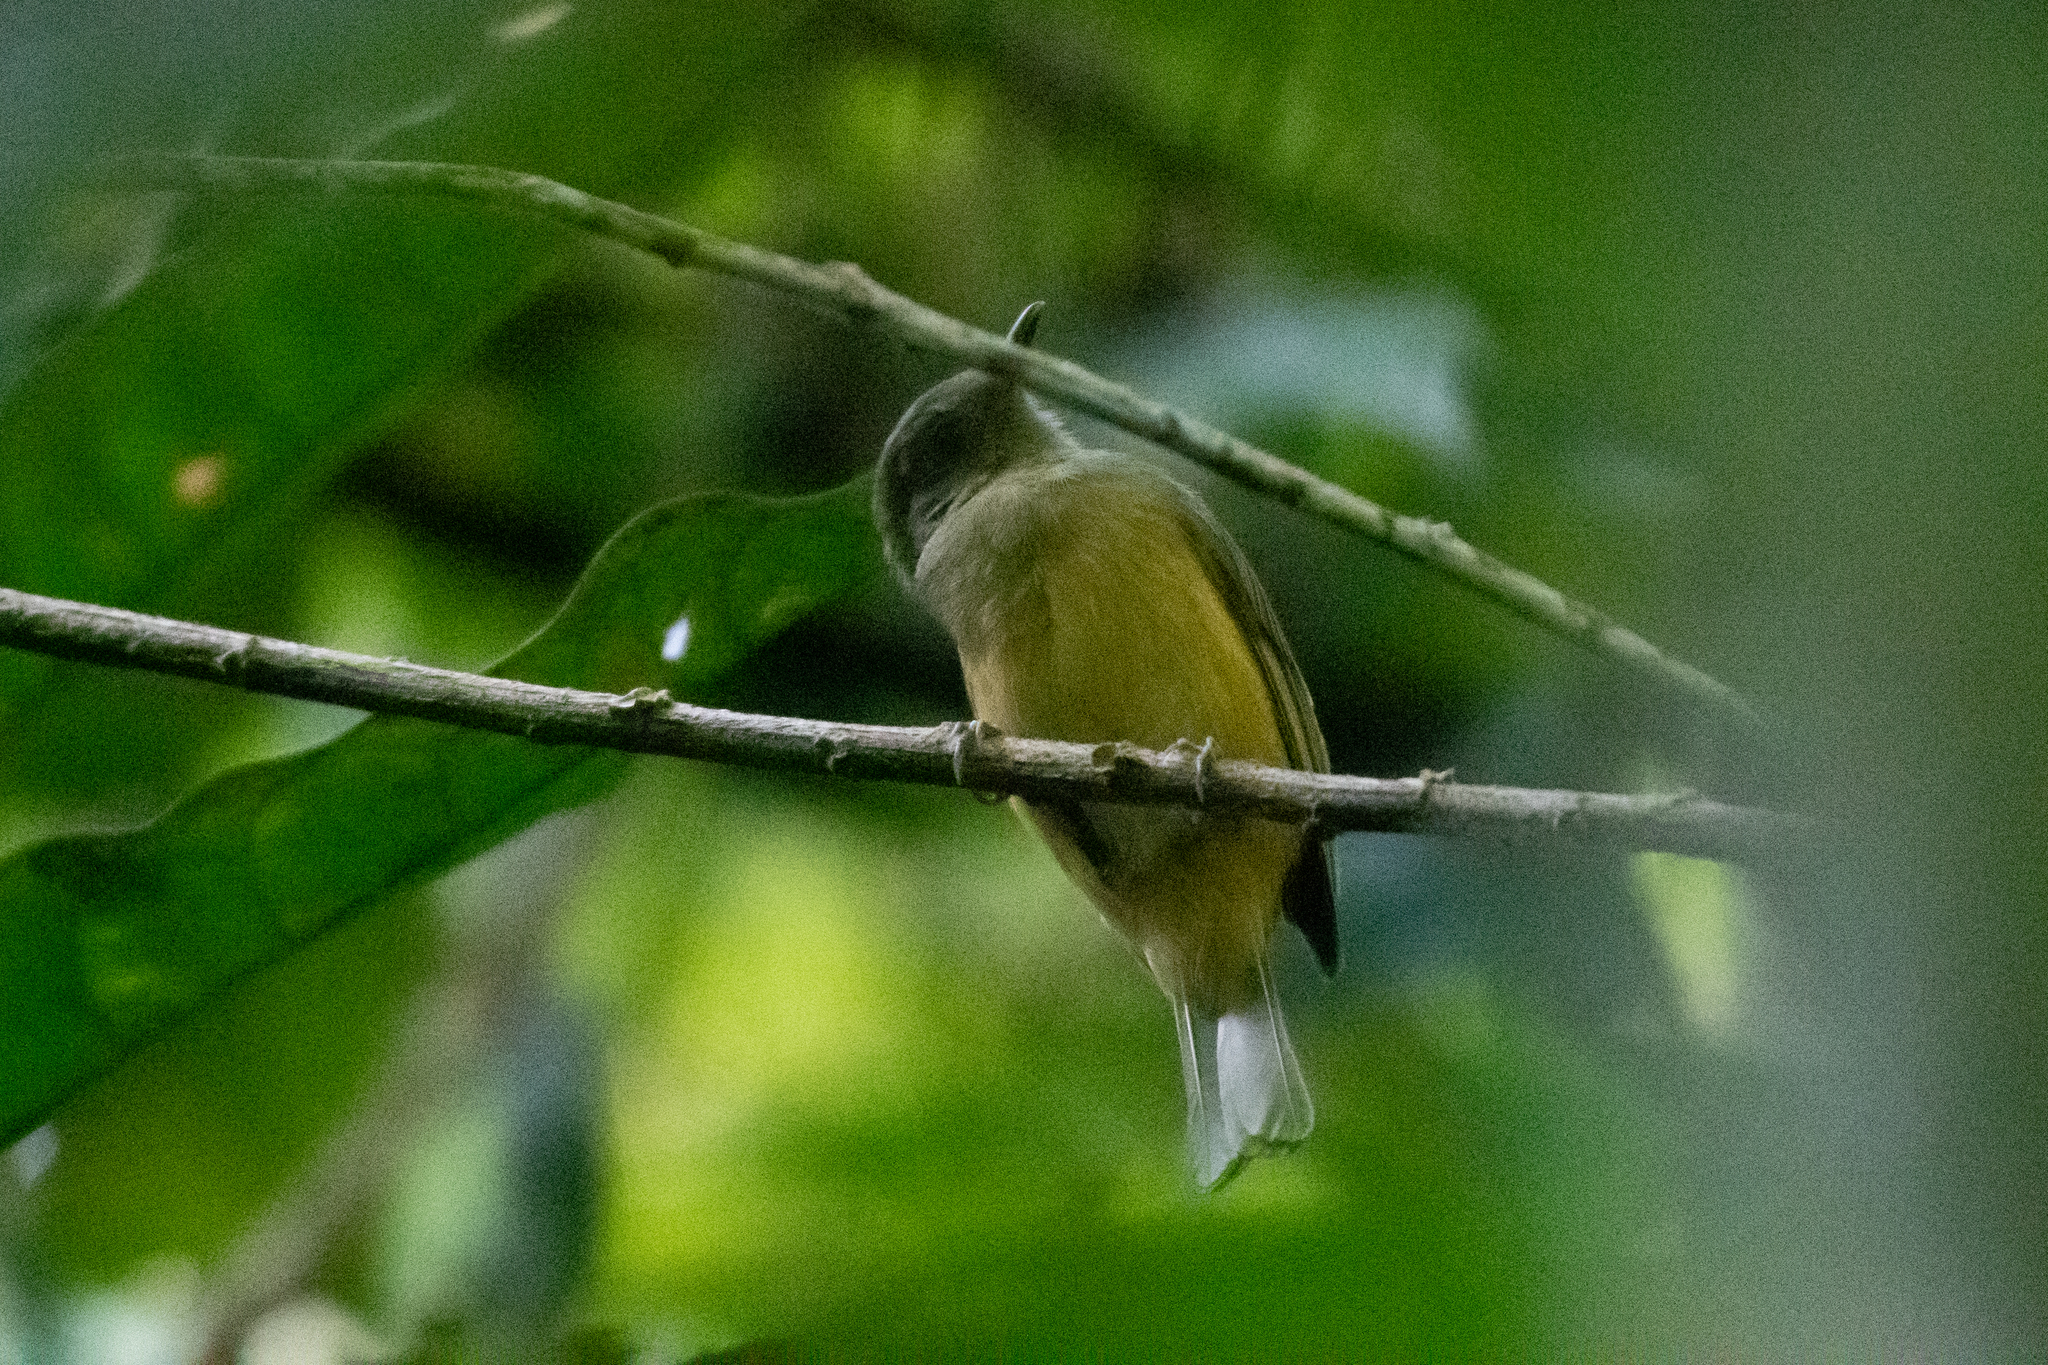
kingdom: Animalia
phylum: Chordata
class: Aves
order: Passeriformes
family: Tyrannidae
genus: Mionectes
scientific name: Mionectes oleagineus
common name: Ochre-bellied flycatcher
